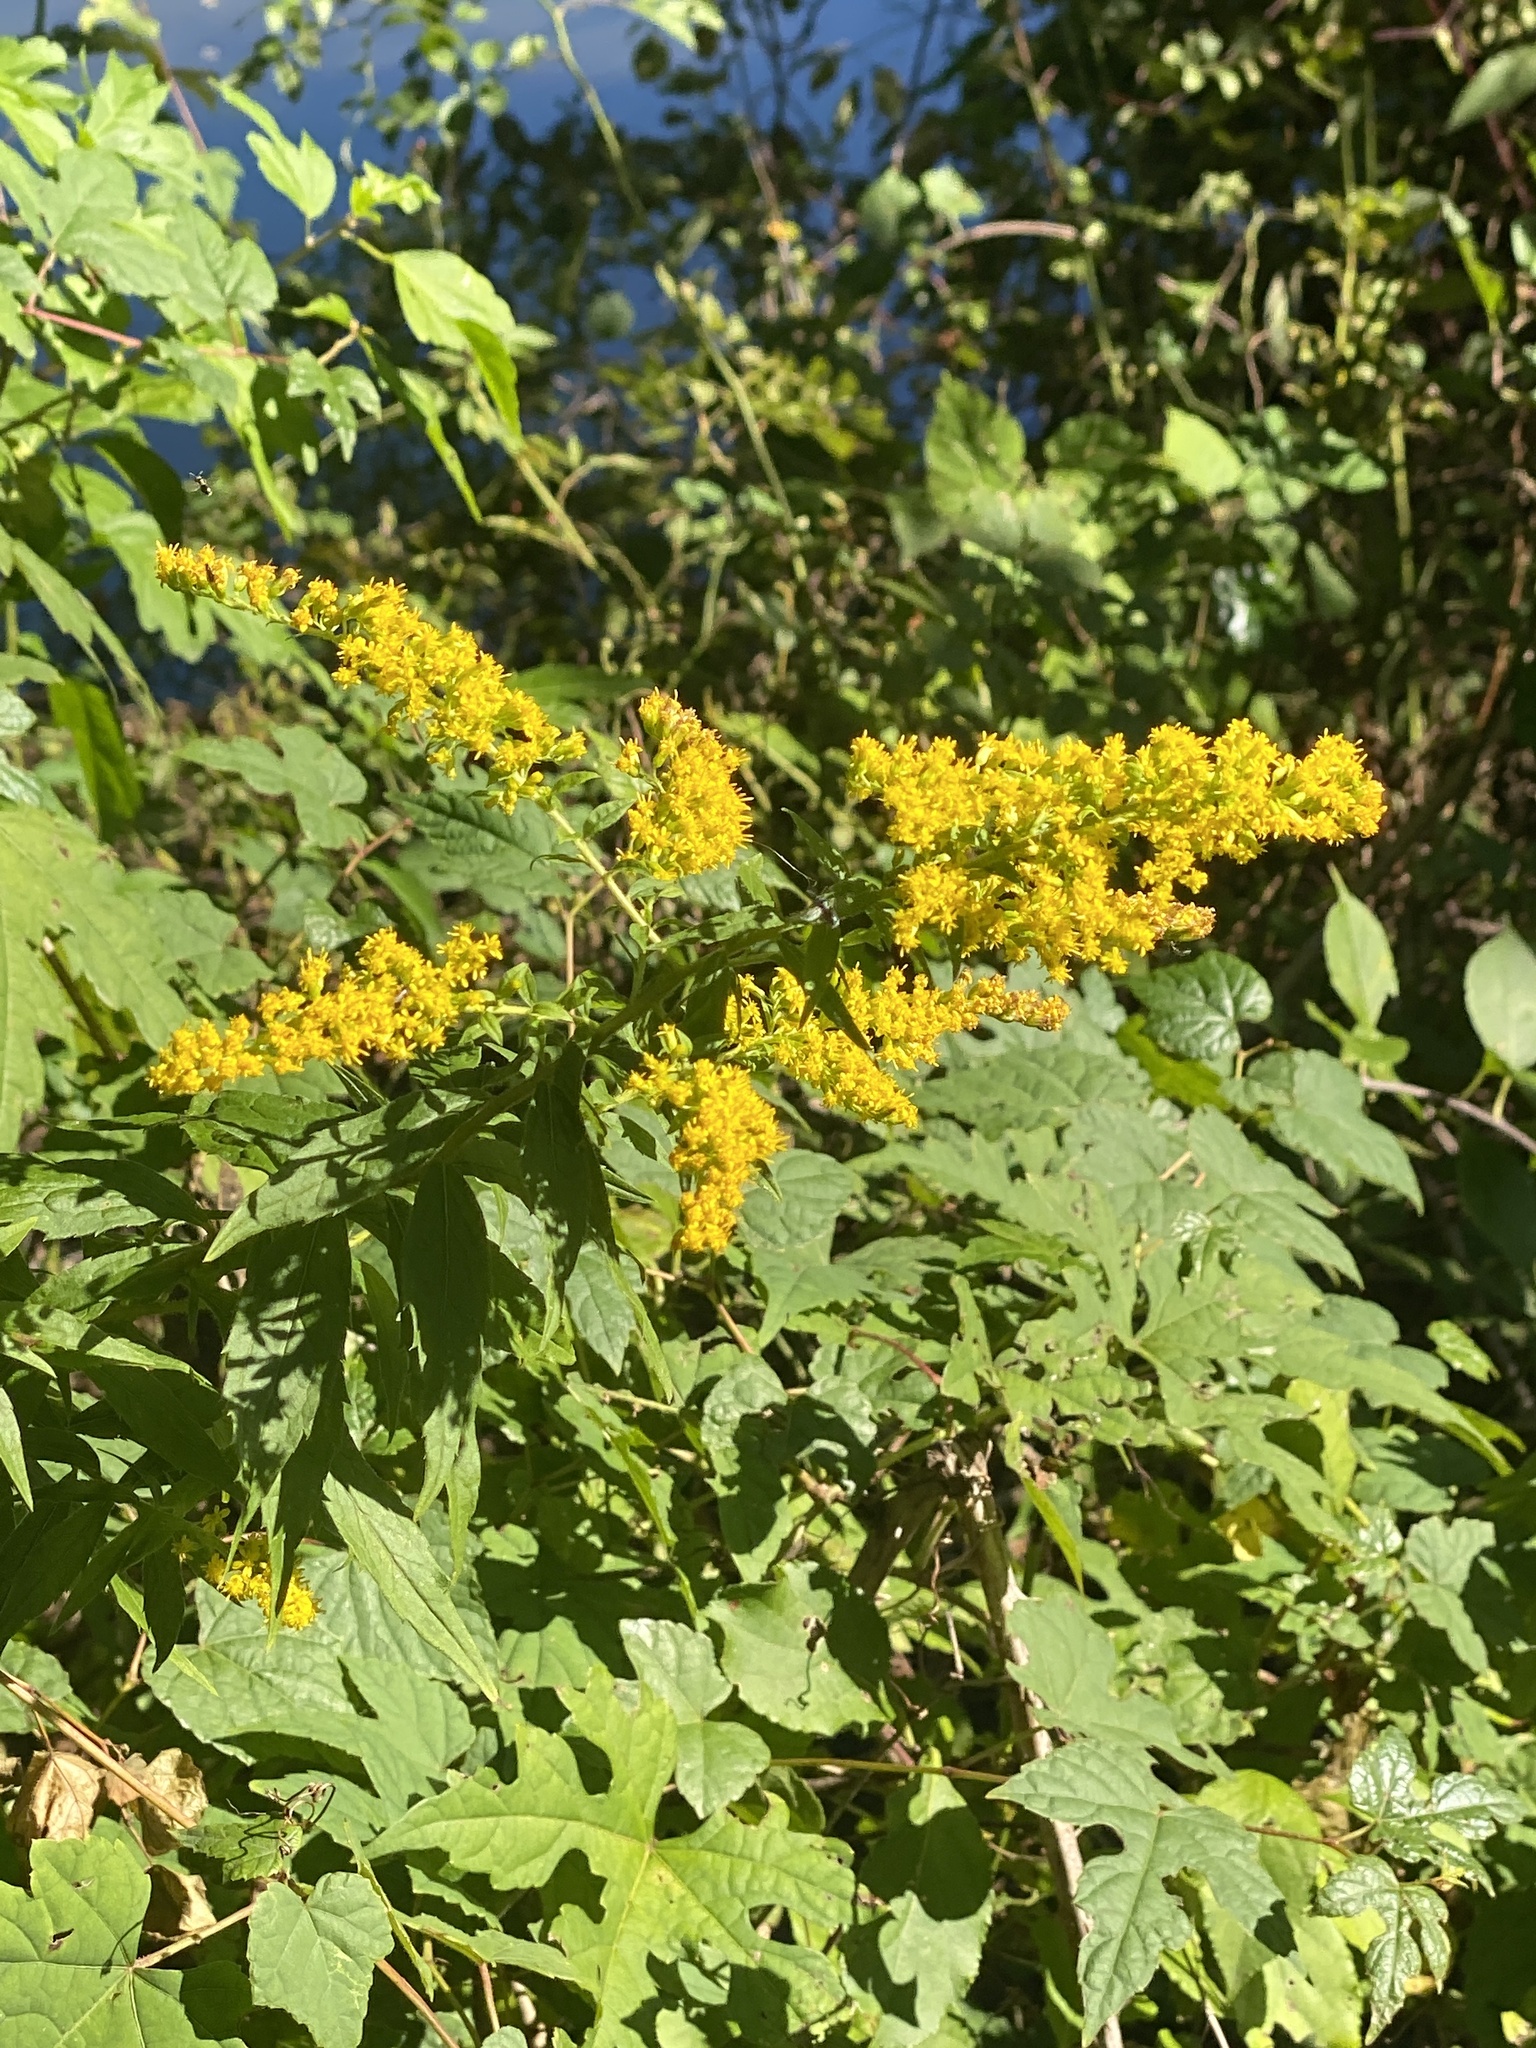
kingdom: Plantae
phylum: Tracheophyta
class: Magnoliopsida
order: Asterales
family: Asteraceae
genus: Solidago
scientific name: Solidago rugosa
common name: Rough-stemmed goldenrod
